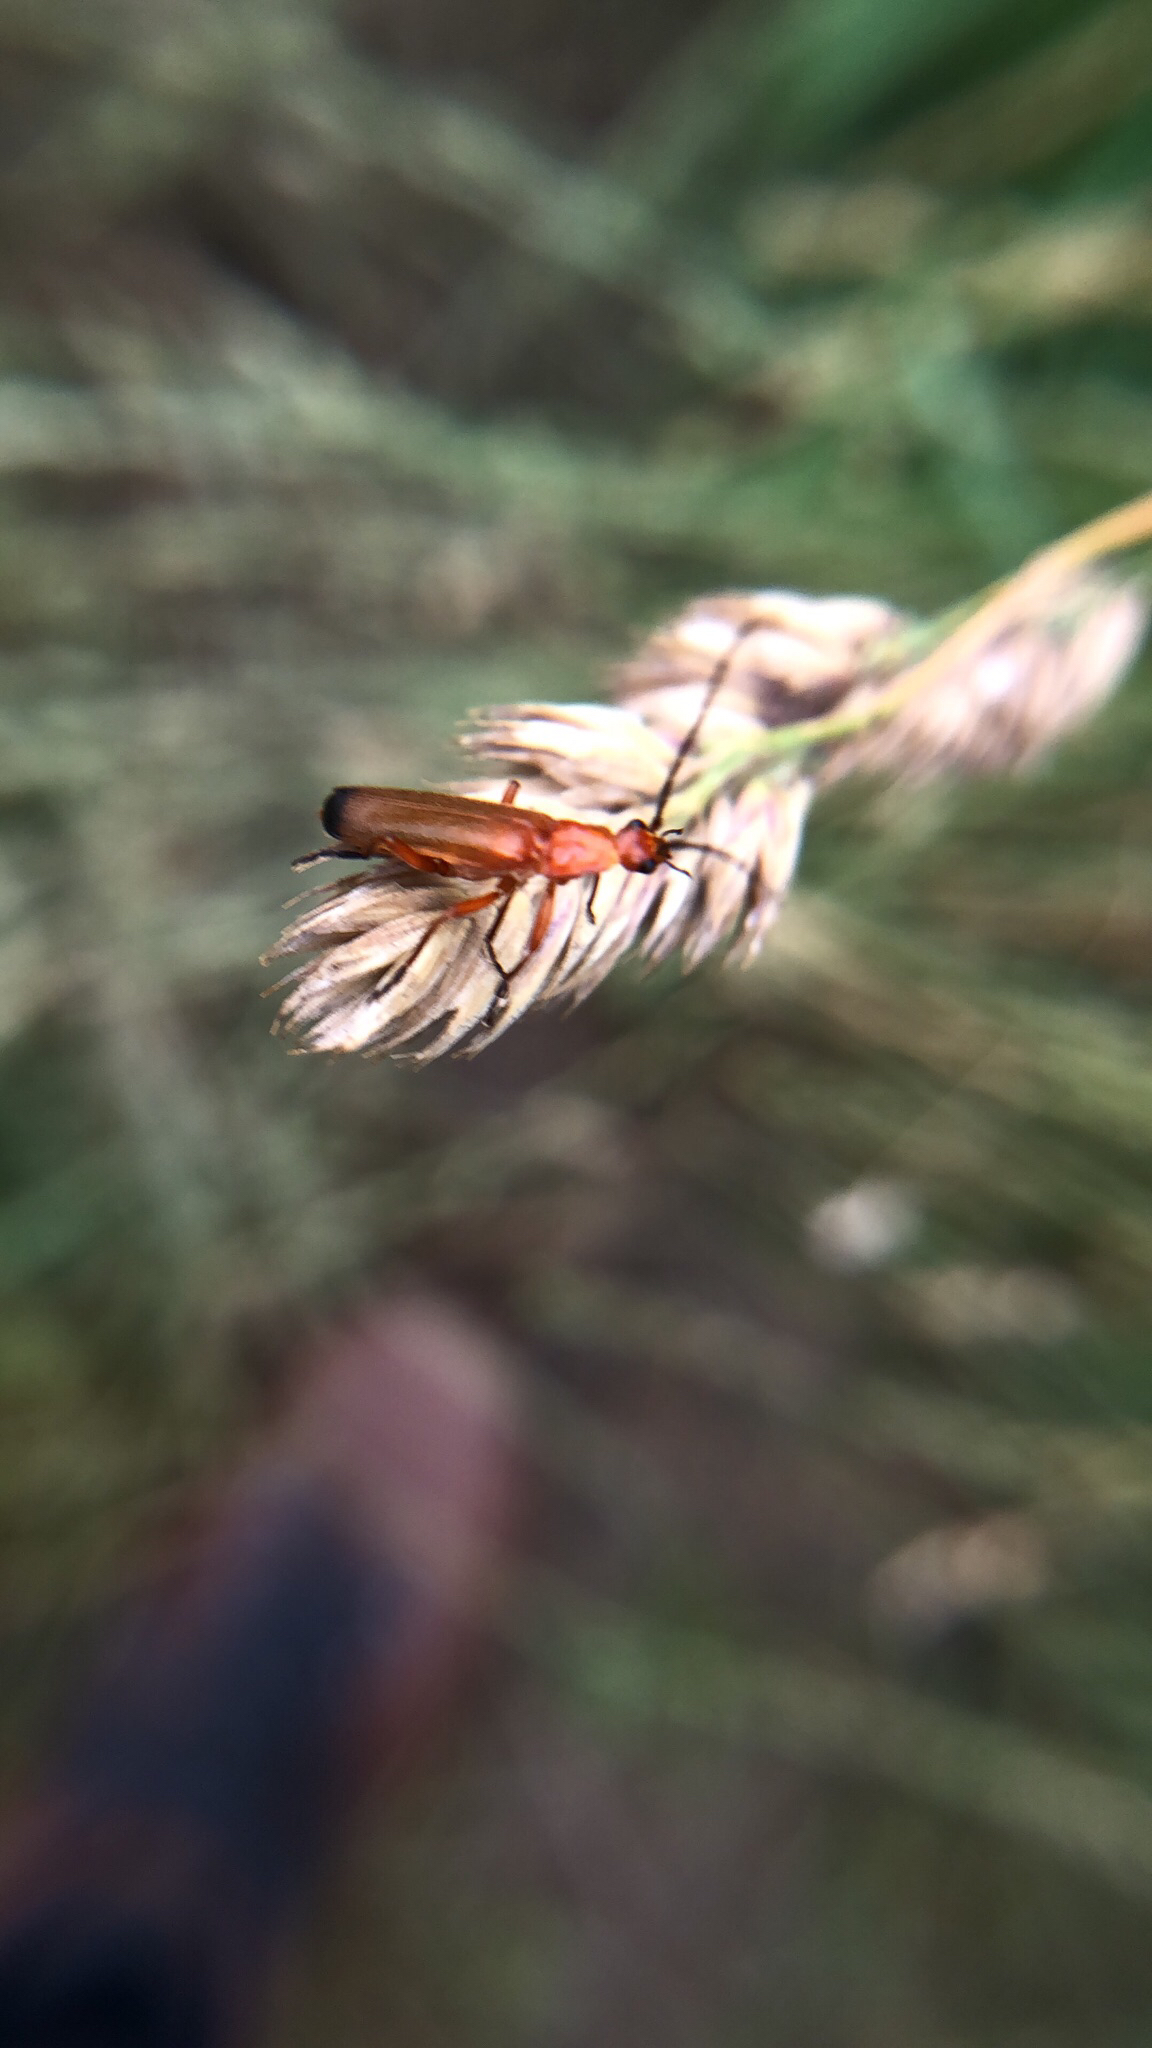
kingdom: Animalia
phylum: Arthropoda
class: Insecta
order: Coleoptera
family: Cantharidae
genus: Rhagonycha
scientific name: Rhagonycha fulva
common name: Common red soldier beetle
